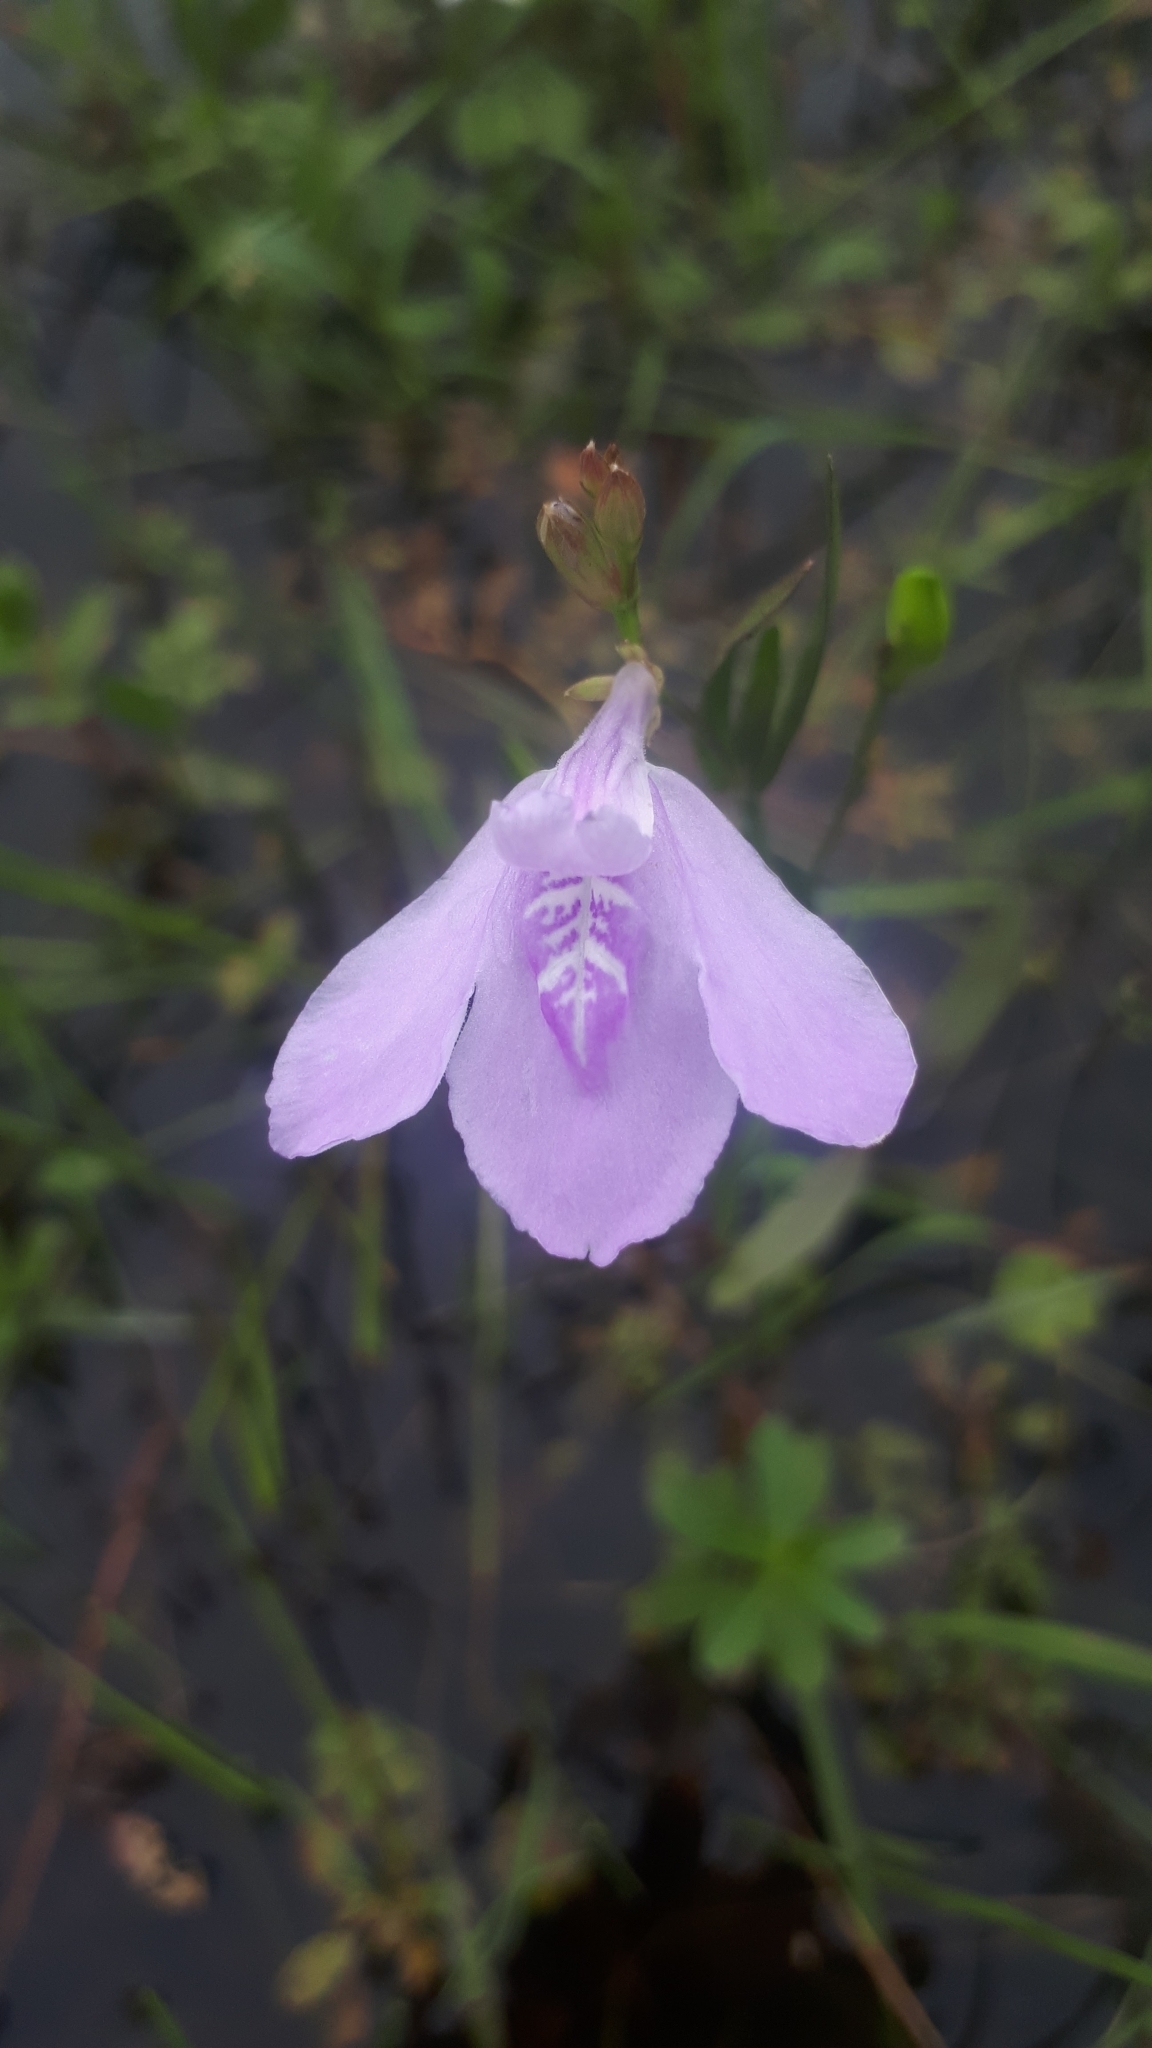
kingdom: Plantae
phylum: Tracheophyta
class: Magnoliopsida
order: Lamiales
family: Acanthaceae
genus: Dianthera
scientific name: Dianthera laevilinguis
